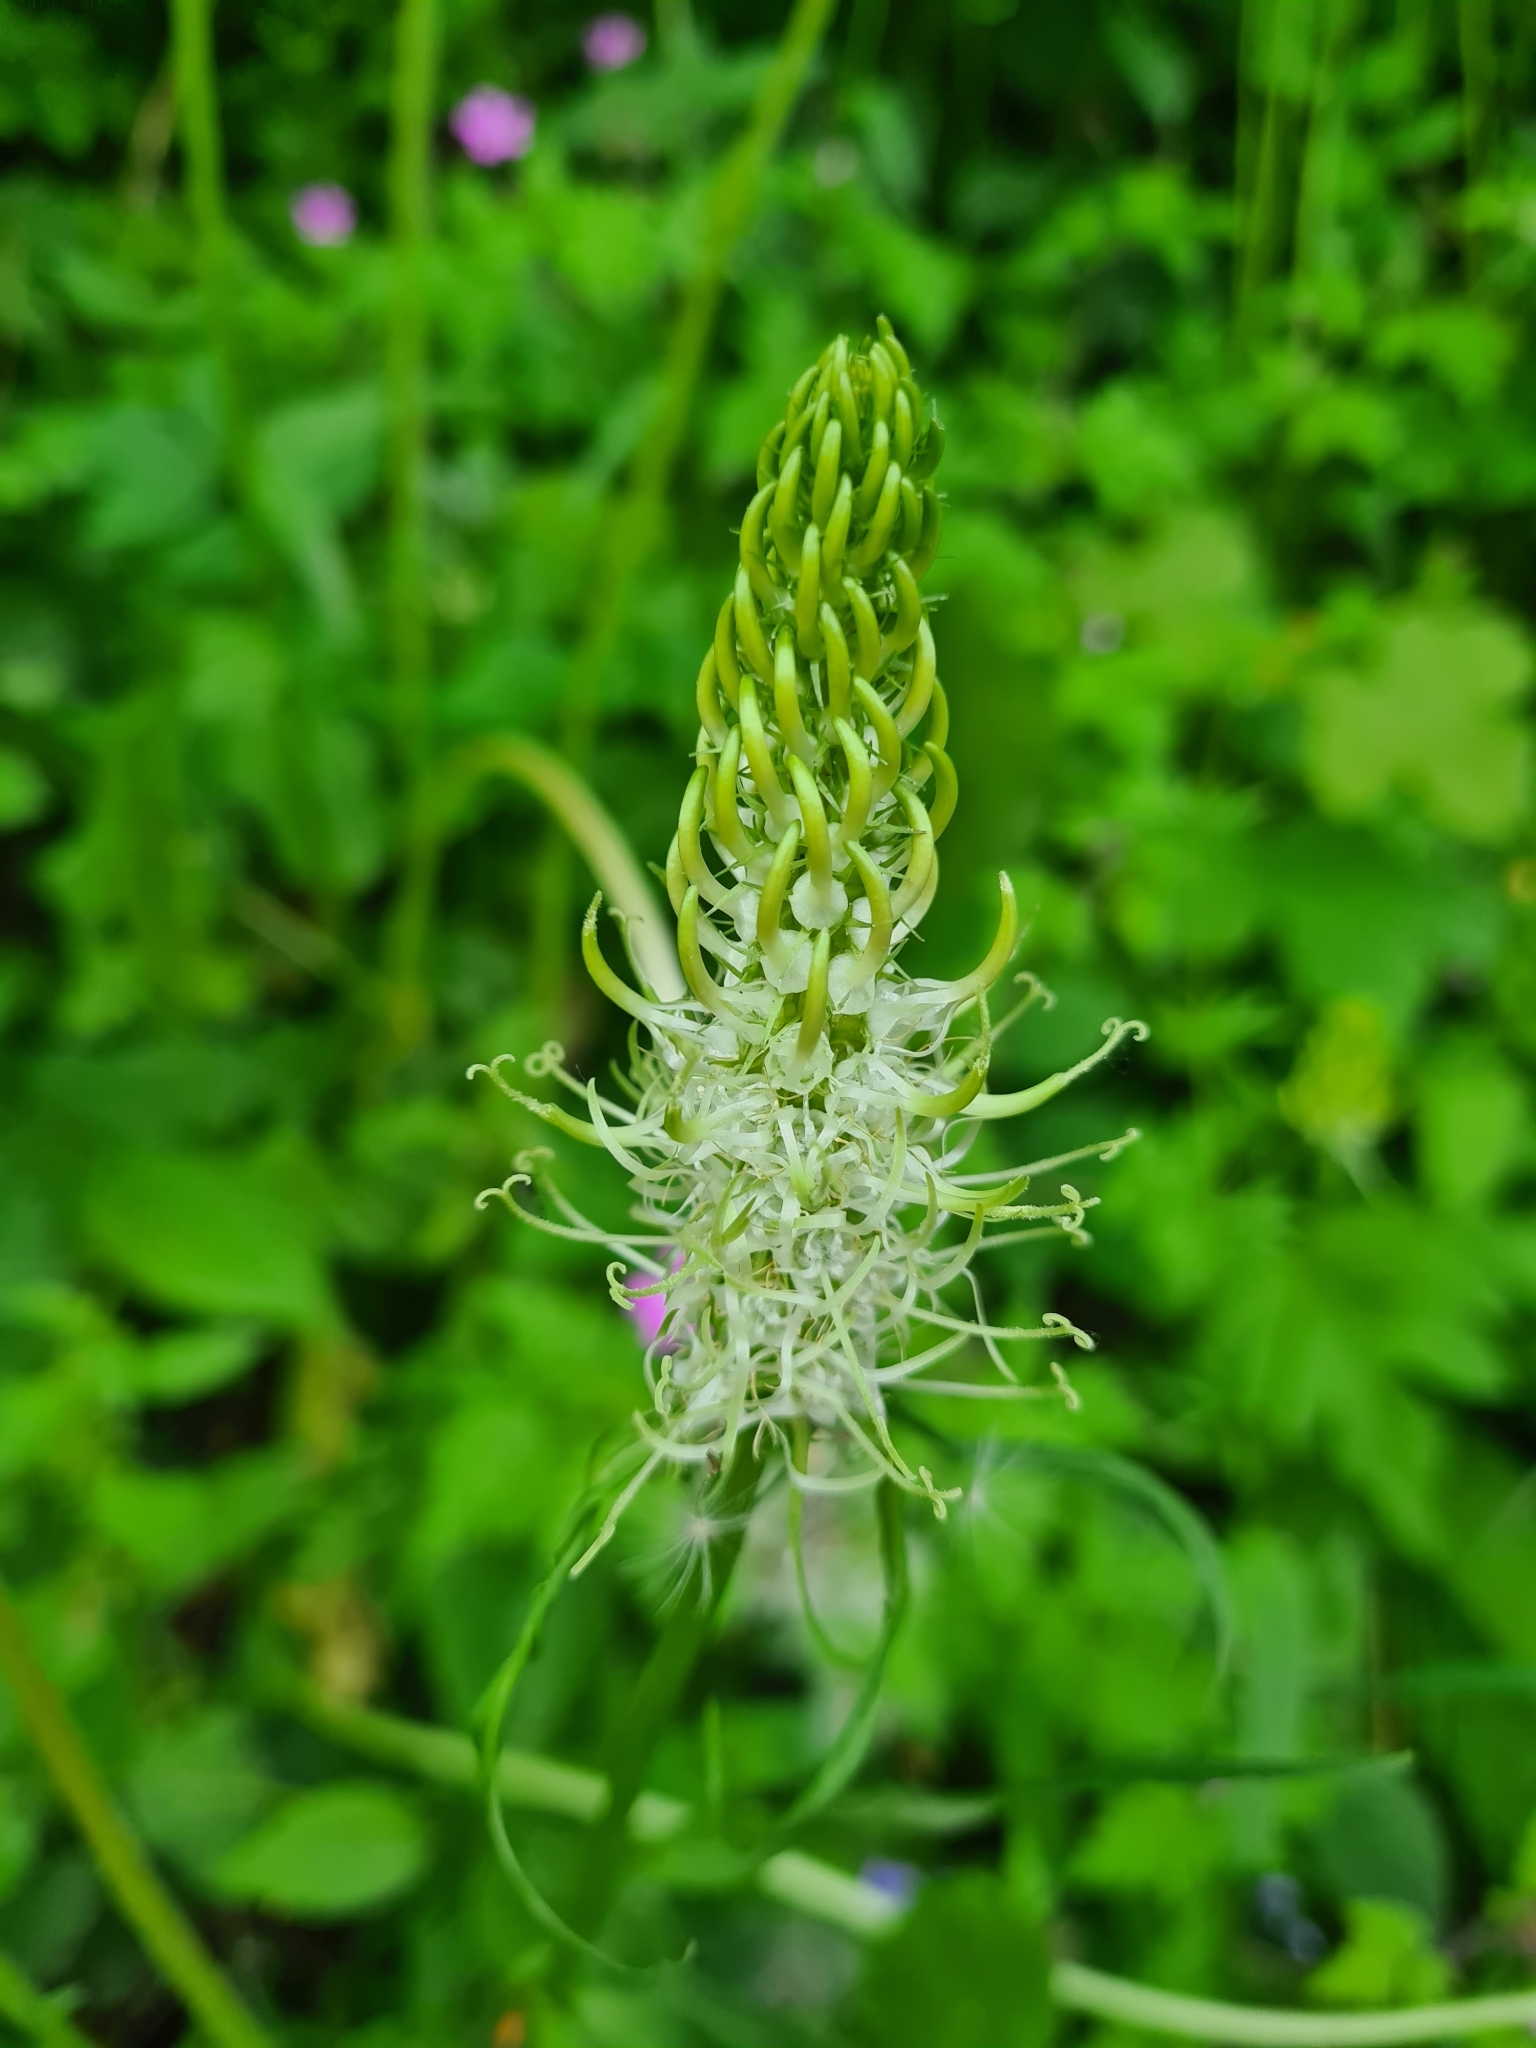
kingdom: Plantae
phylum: Tracheophyta
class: Magnoliopsida
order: Asterales
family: Campanulaceae
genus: Phyteuma
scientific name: Phyteuma spicatum
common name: Spiked rampion
